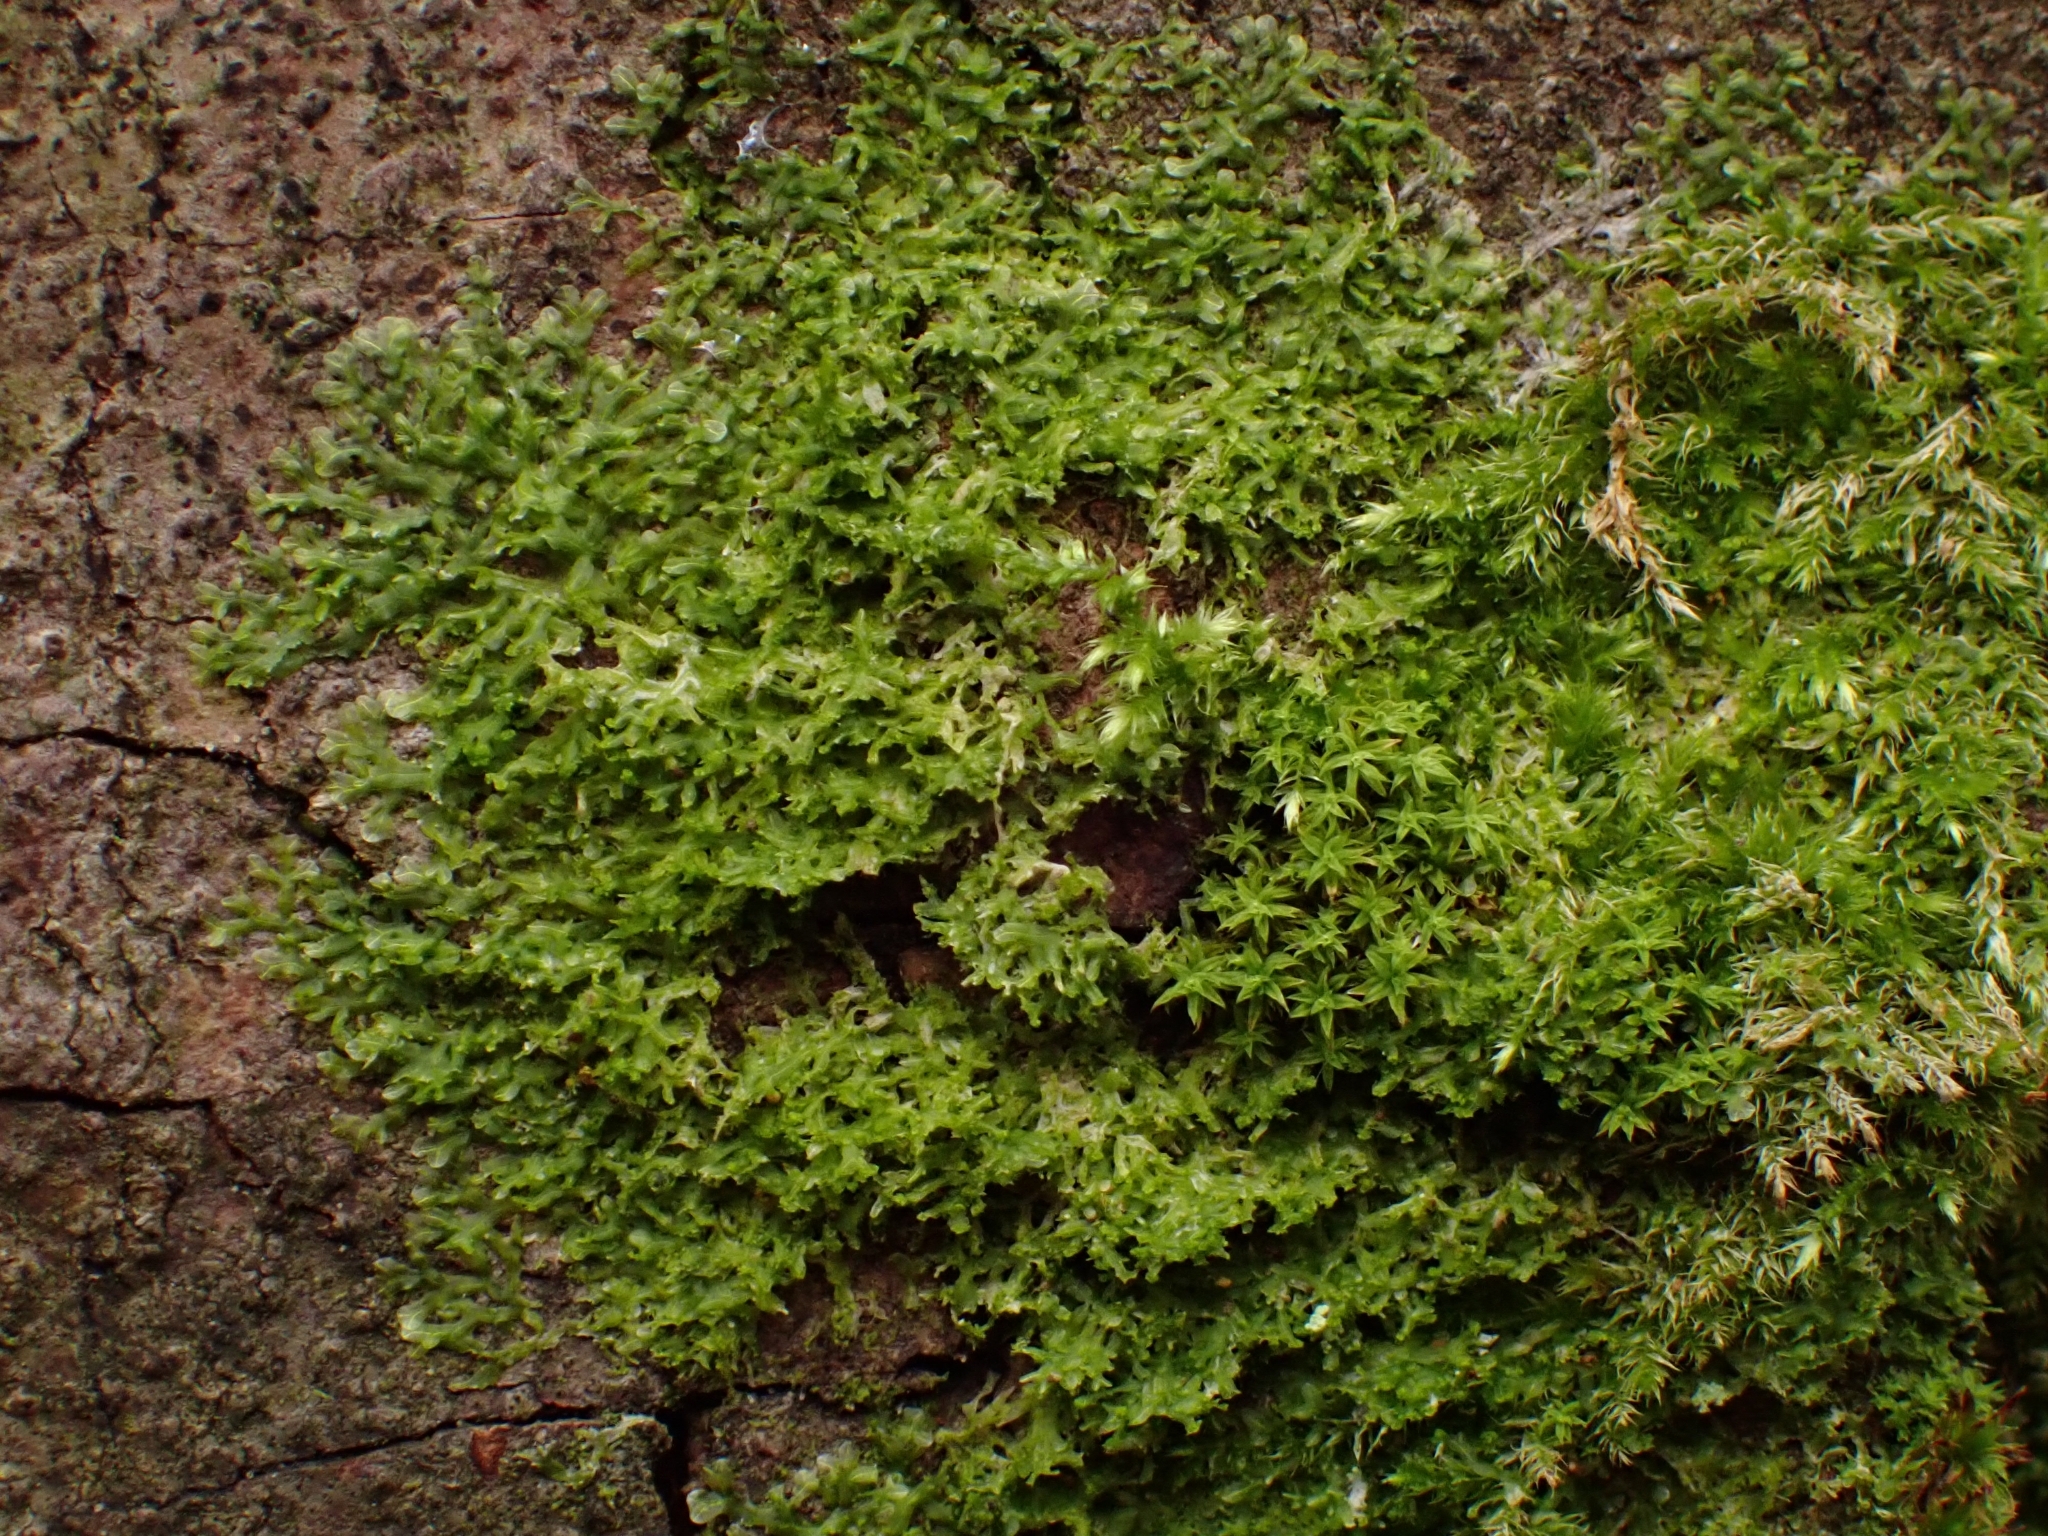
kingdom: Plantae
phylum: Marchantiophyta
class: Jungermanniopsida
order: Metzgeriales
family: Metzgeriaceae
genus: Metzgeria
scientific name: Metzgeria furcata
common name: Forked veilwort
